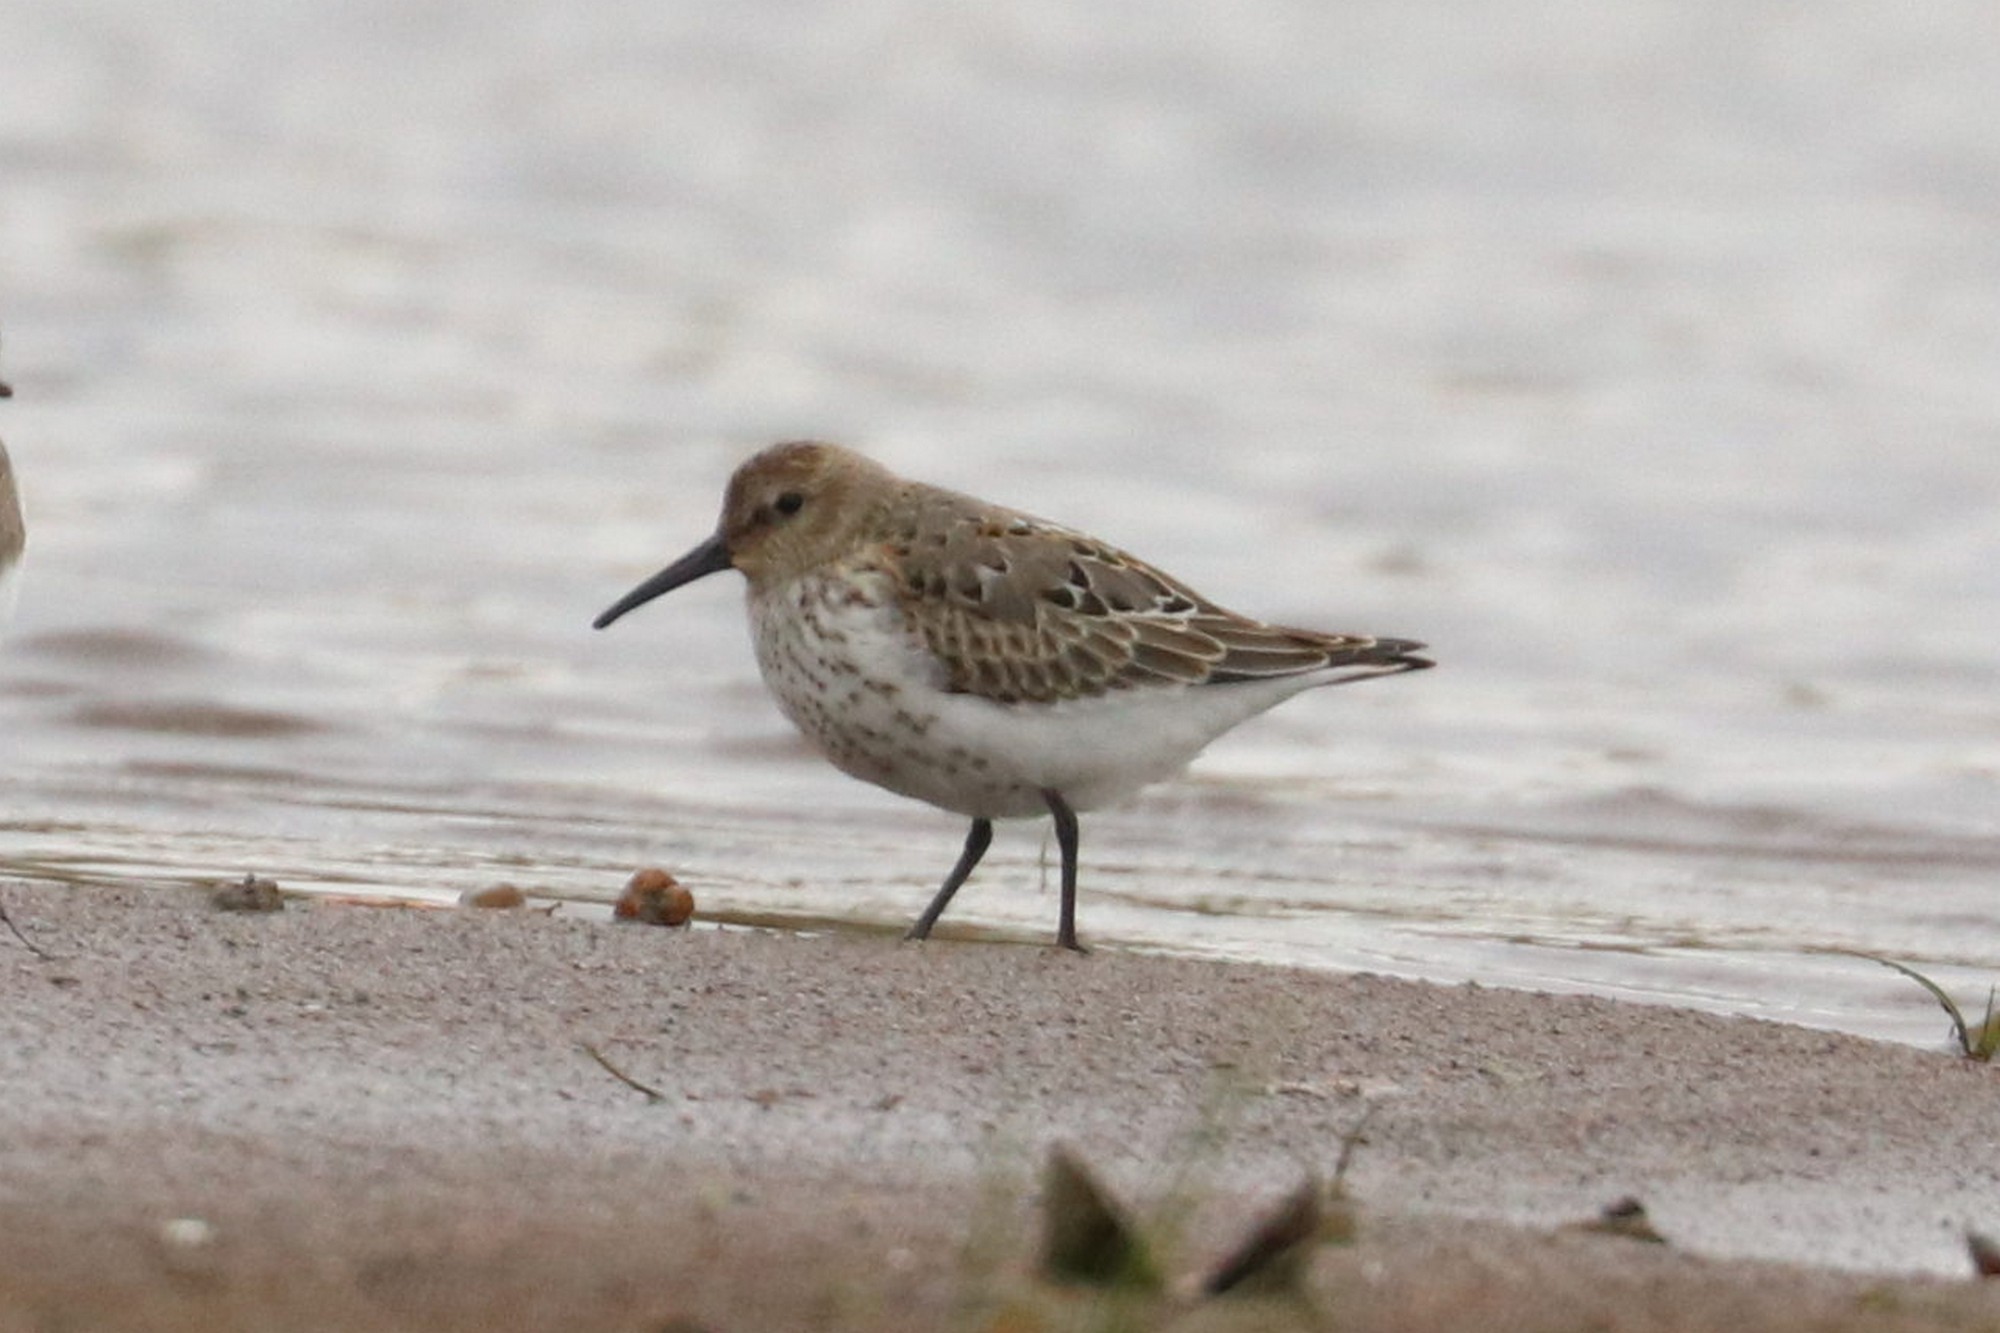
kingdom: Animalia
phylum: Chordata
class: Aves
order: Charadriiformes
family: Scolopacidae
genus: Calidris
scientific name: Calidris alpina
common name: Dunlin
